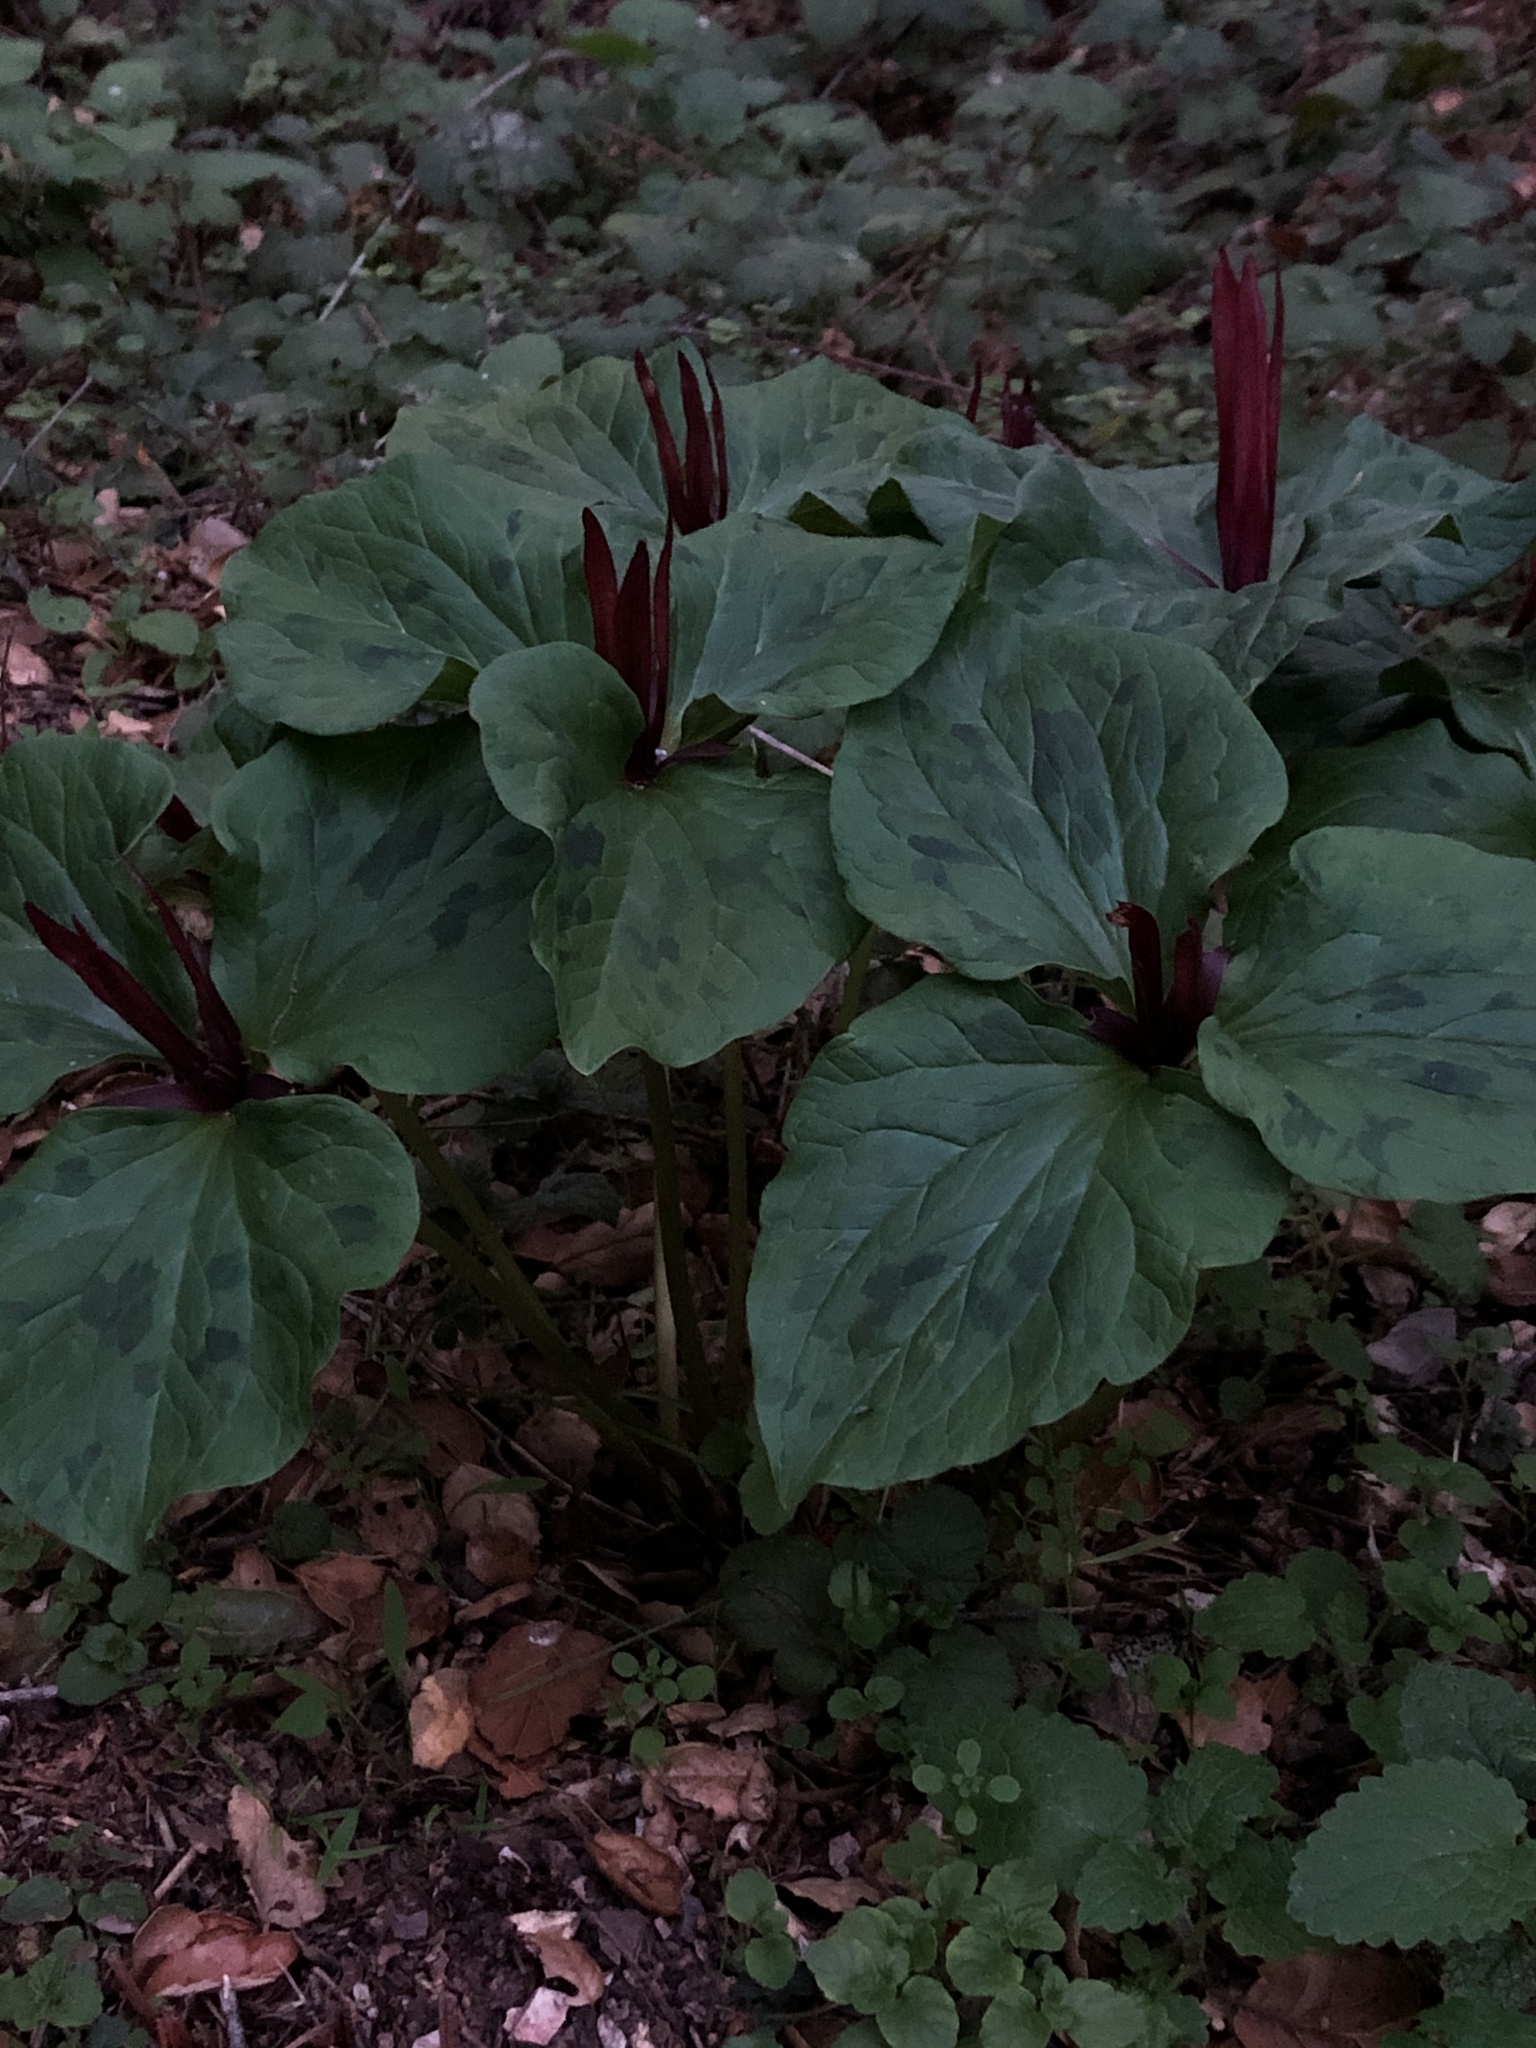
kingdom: Plantae
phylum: Tracheophyta
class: Liliopsida
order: Liliales
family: Melanthiaceae
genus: Trillium
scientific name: Trillium angustipetalum
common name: Narrow-petaled trillium
